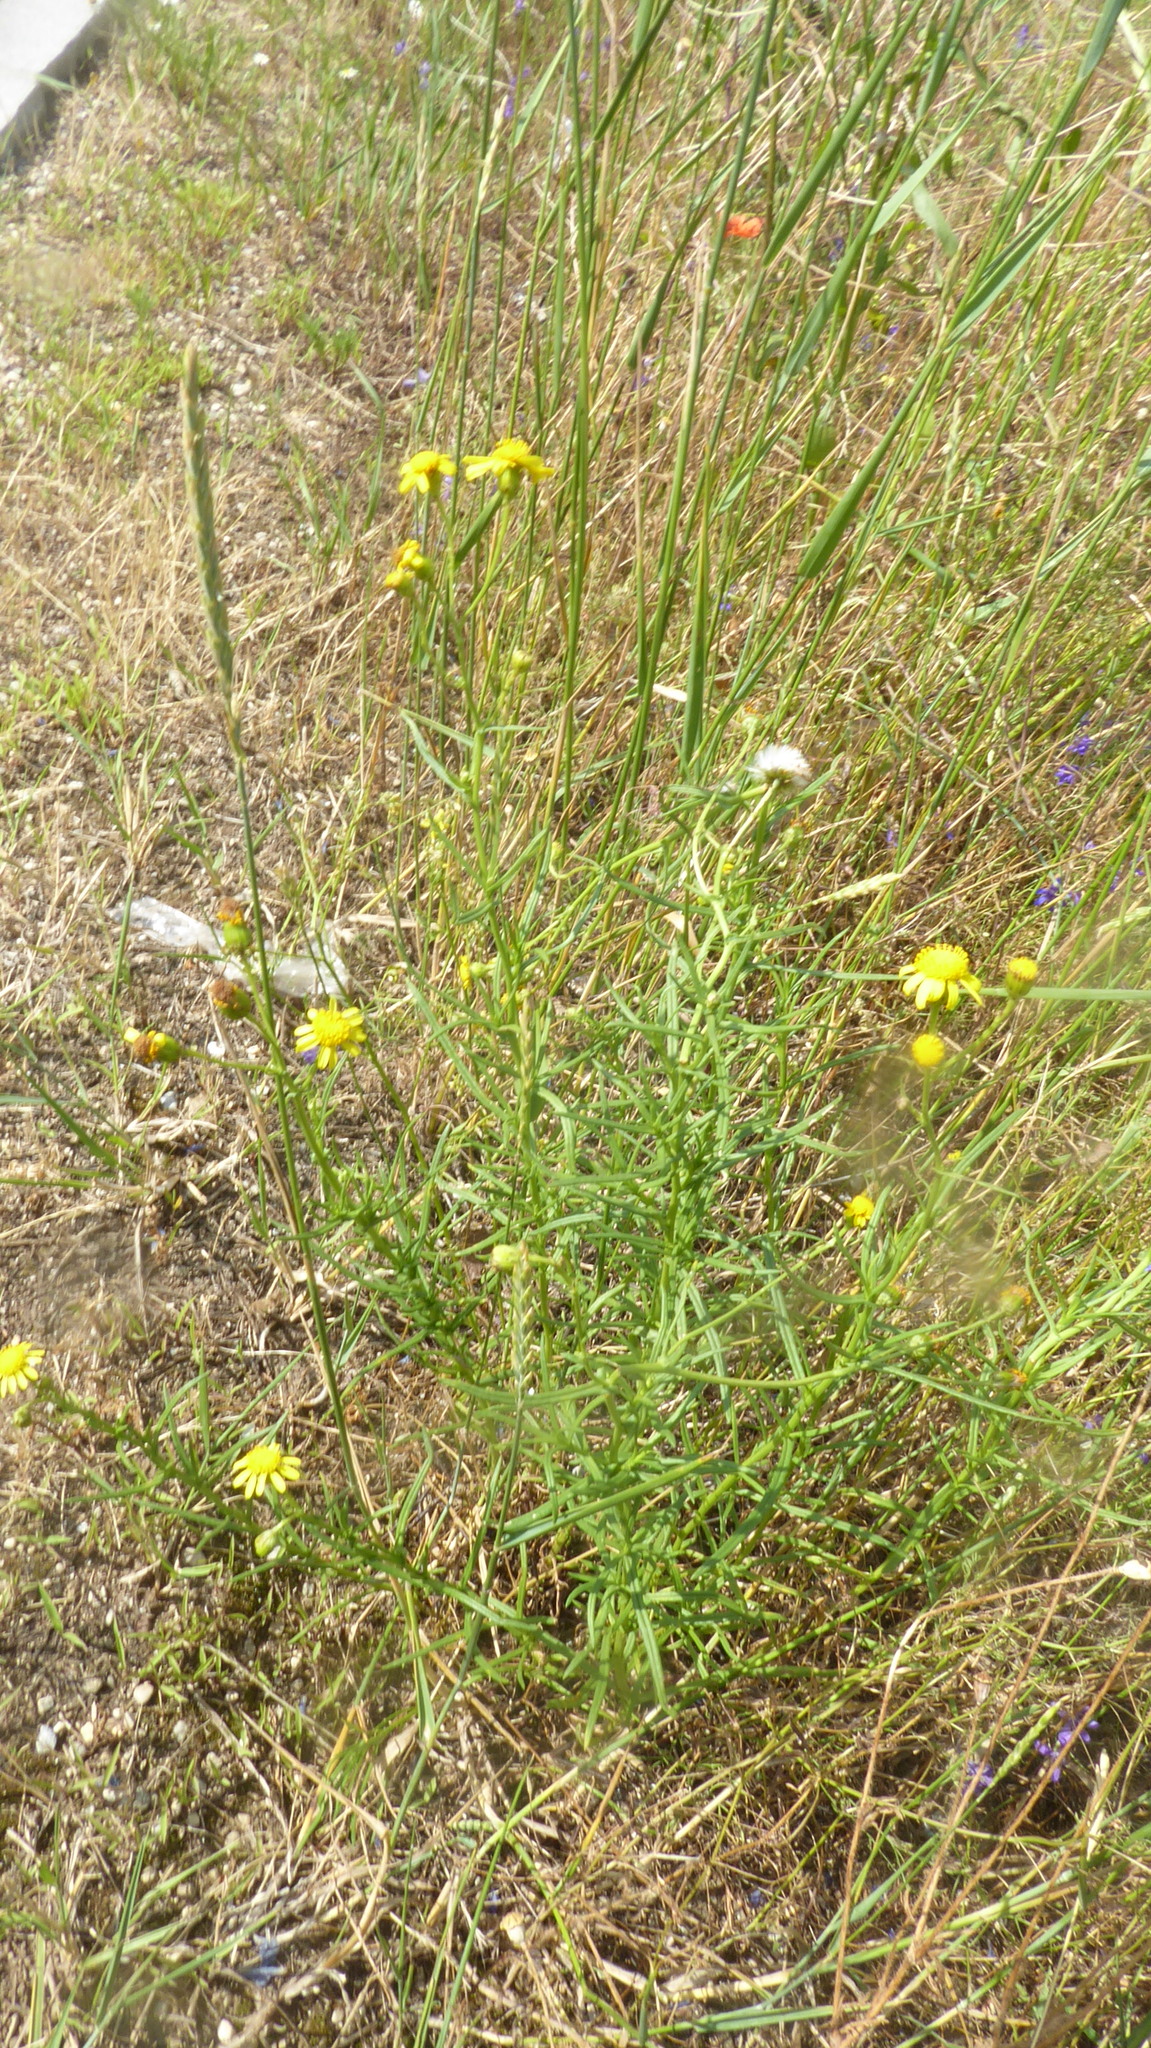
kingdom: Plantae
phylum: Tracheophyta
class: Magnoliopsida
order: Asterales
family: Asteraceae
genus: Senecio
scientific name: Senecio inaequidens
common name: Narrow-leaved ragwort
